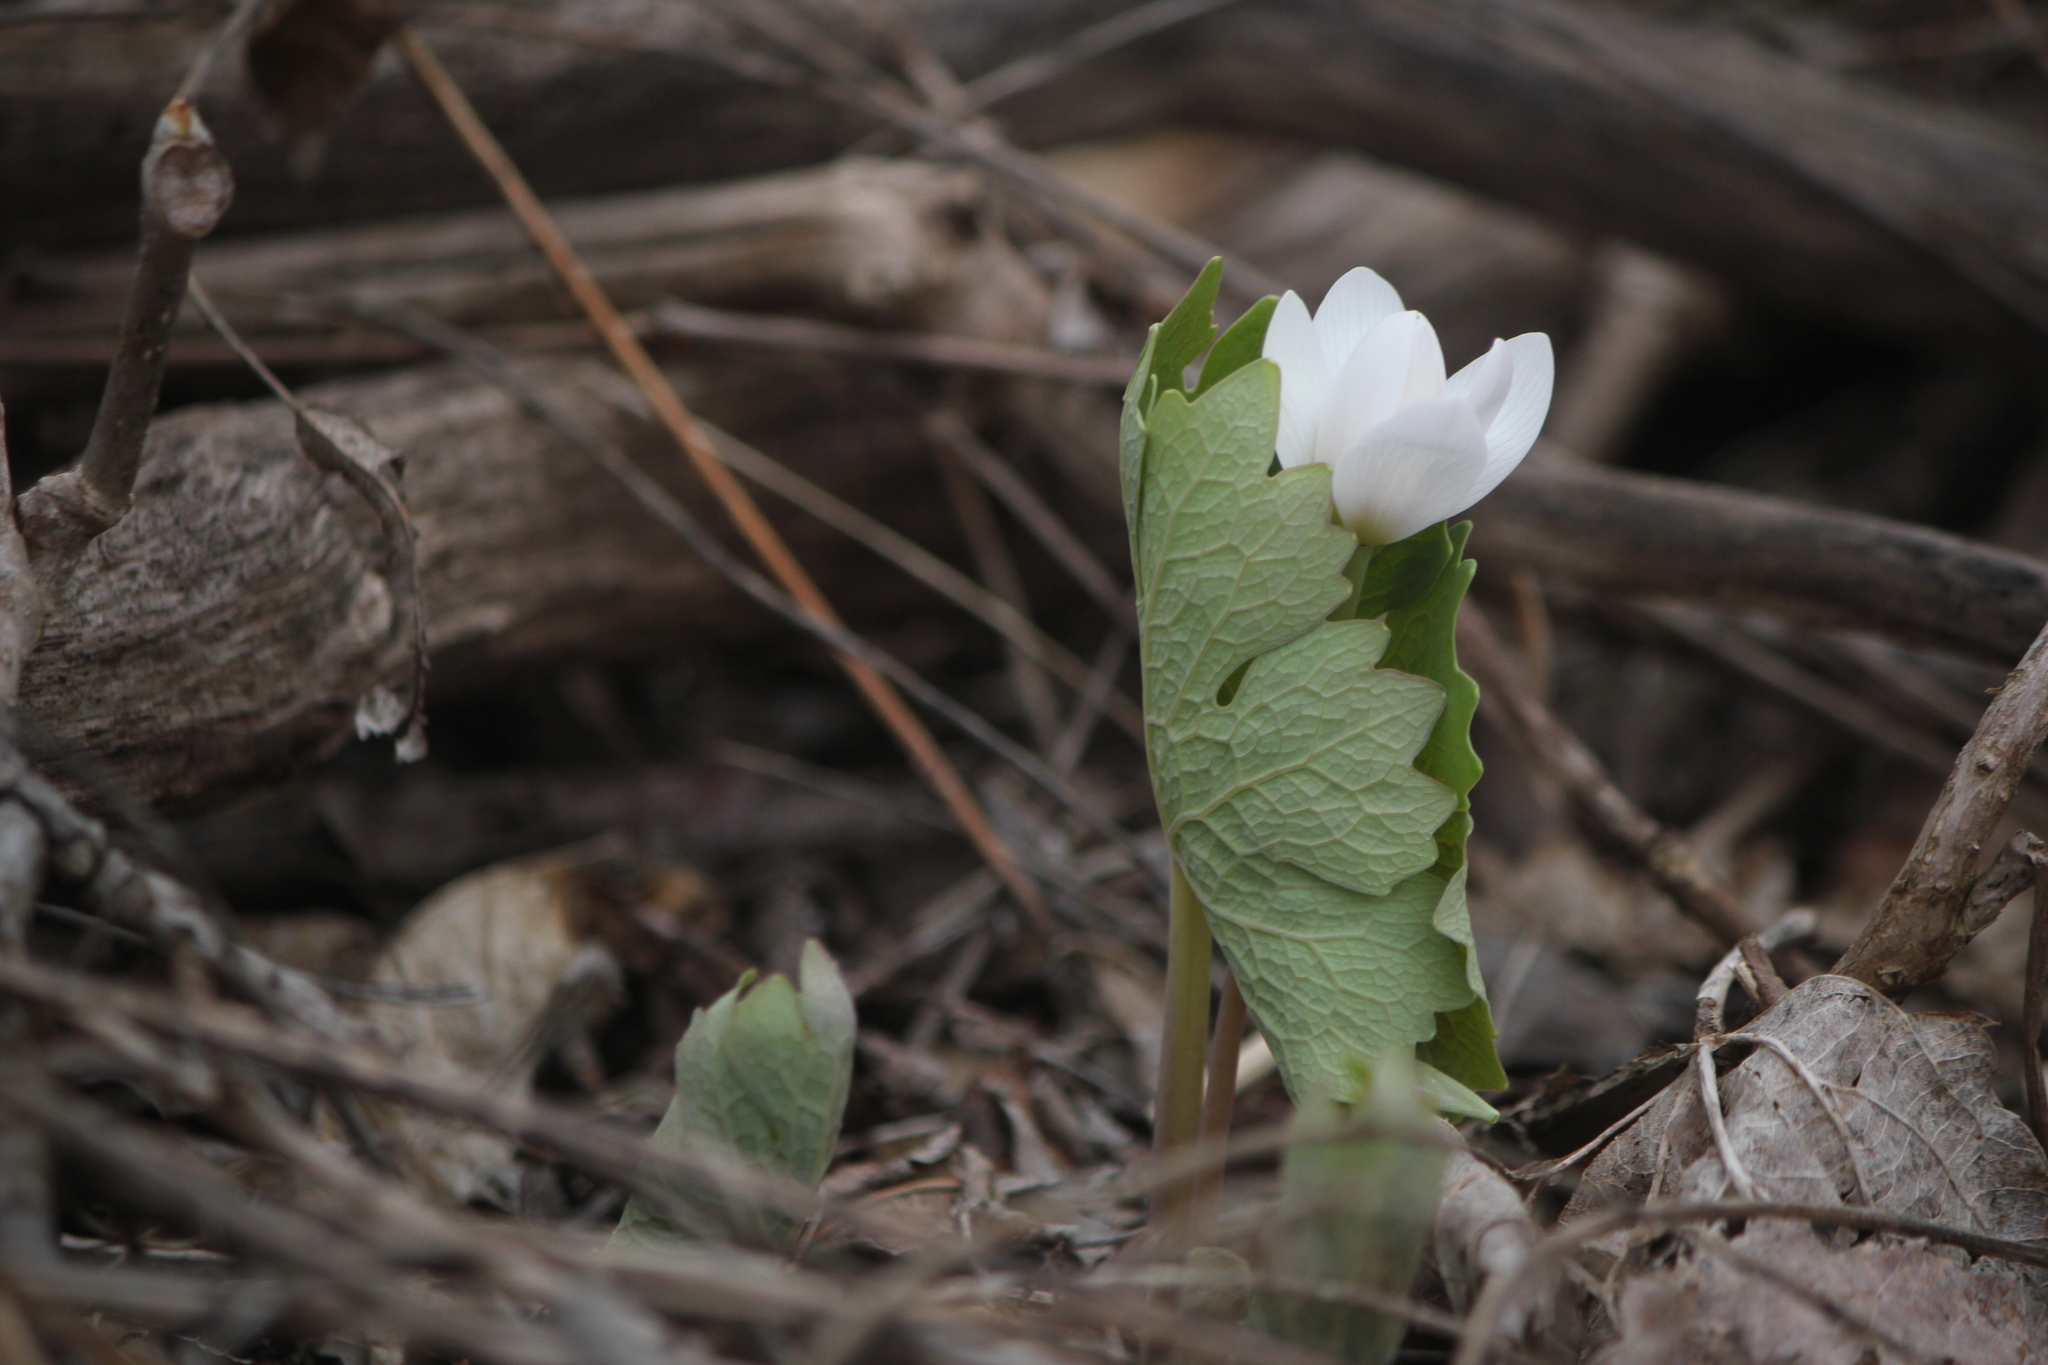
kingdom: Plantae
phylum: Tracheophyta
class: Magnoliopsida
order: Ranunculales
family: Papaveraceae
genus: Sanguinaria
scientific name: Sanguinaria canadensis
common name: Bloodroot
